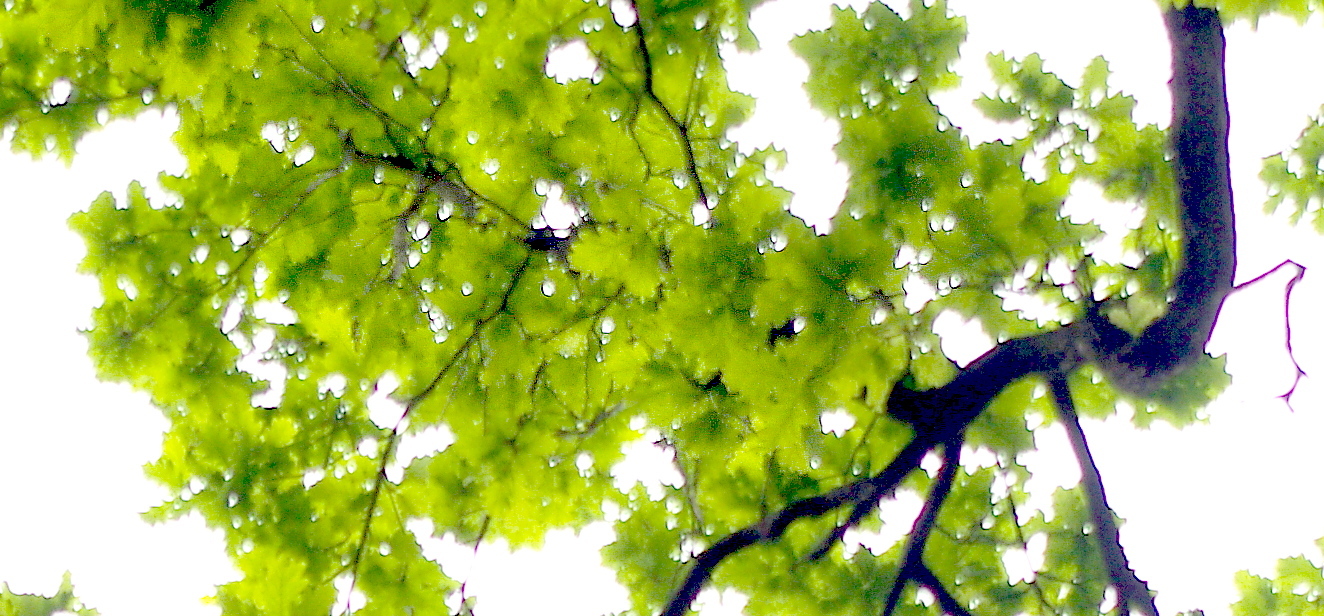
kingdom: Plantae
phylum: Tracheophyta
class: Magnoliopsida
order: Fagales
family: Fagaceae
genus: Quercus
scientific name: Quercus robur
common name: Pedunculate oak
